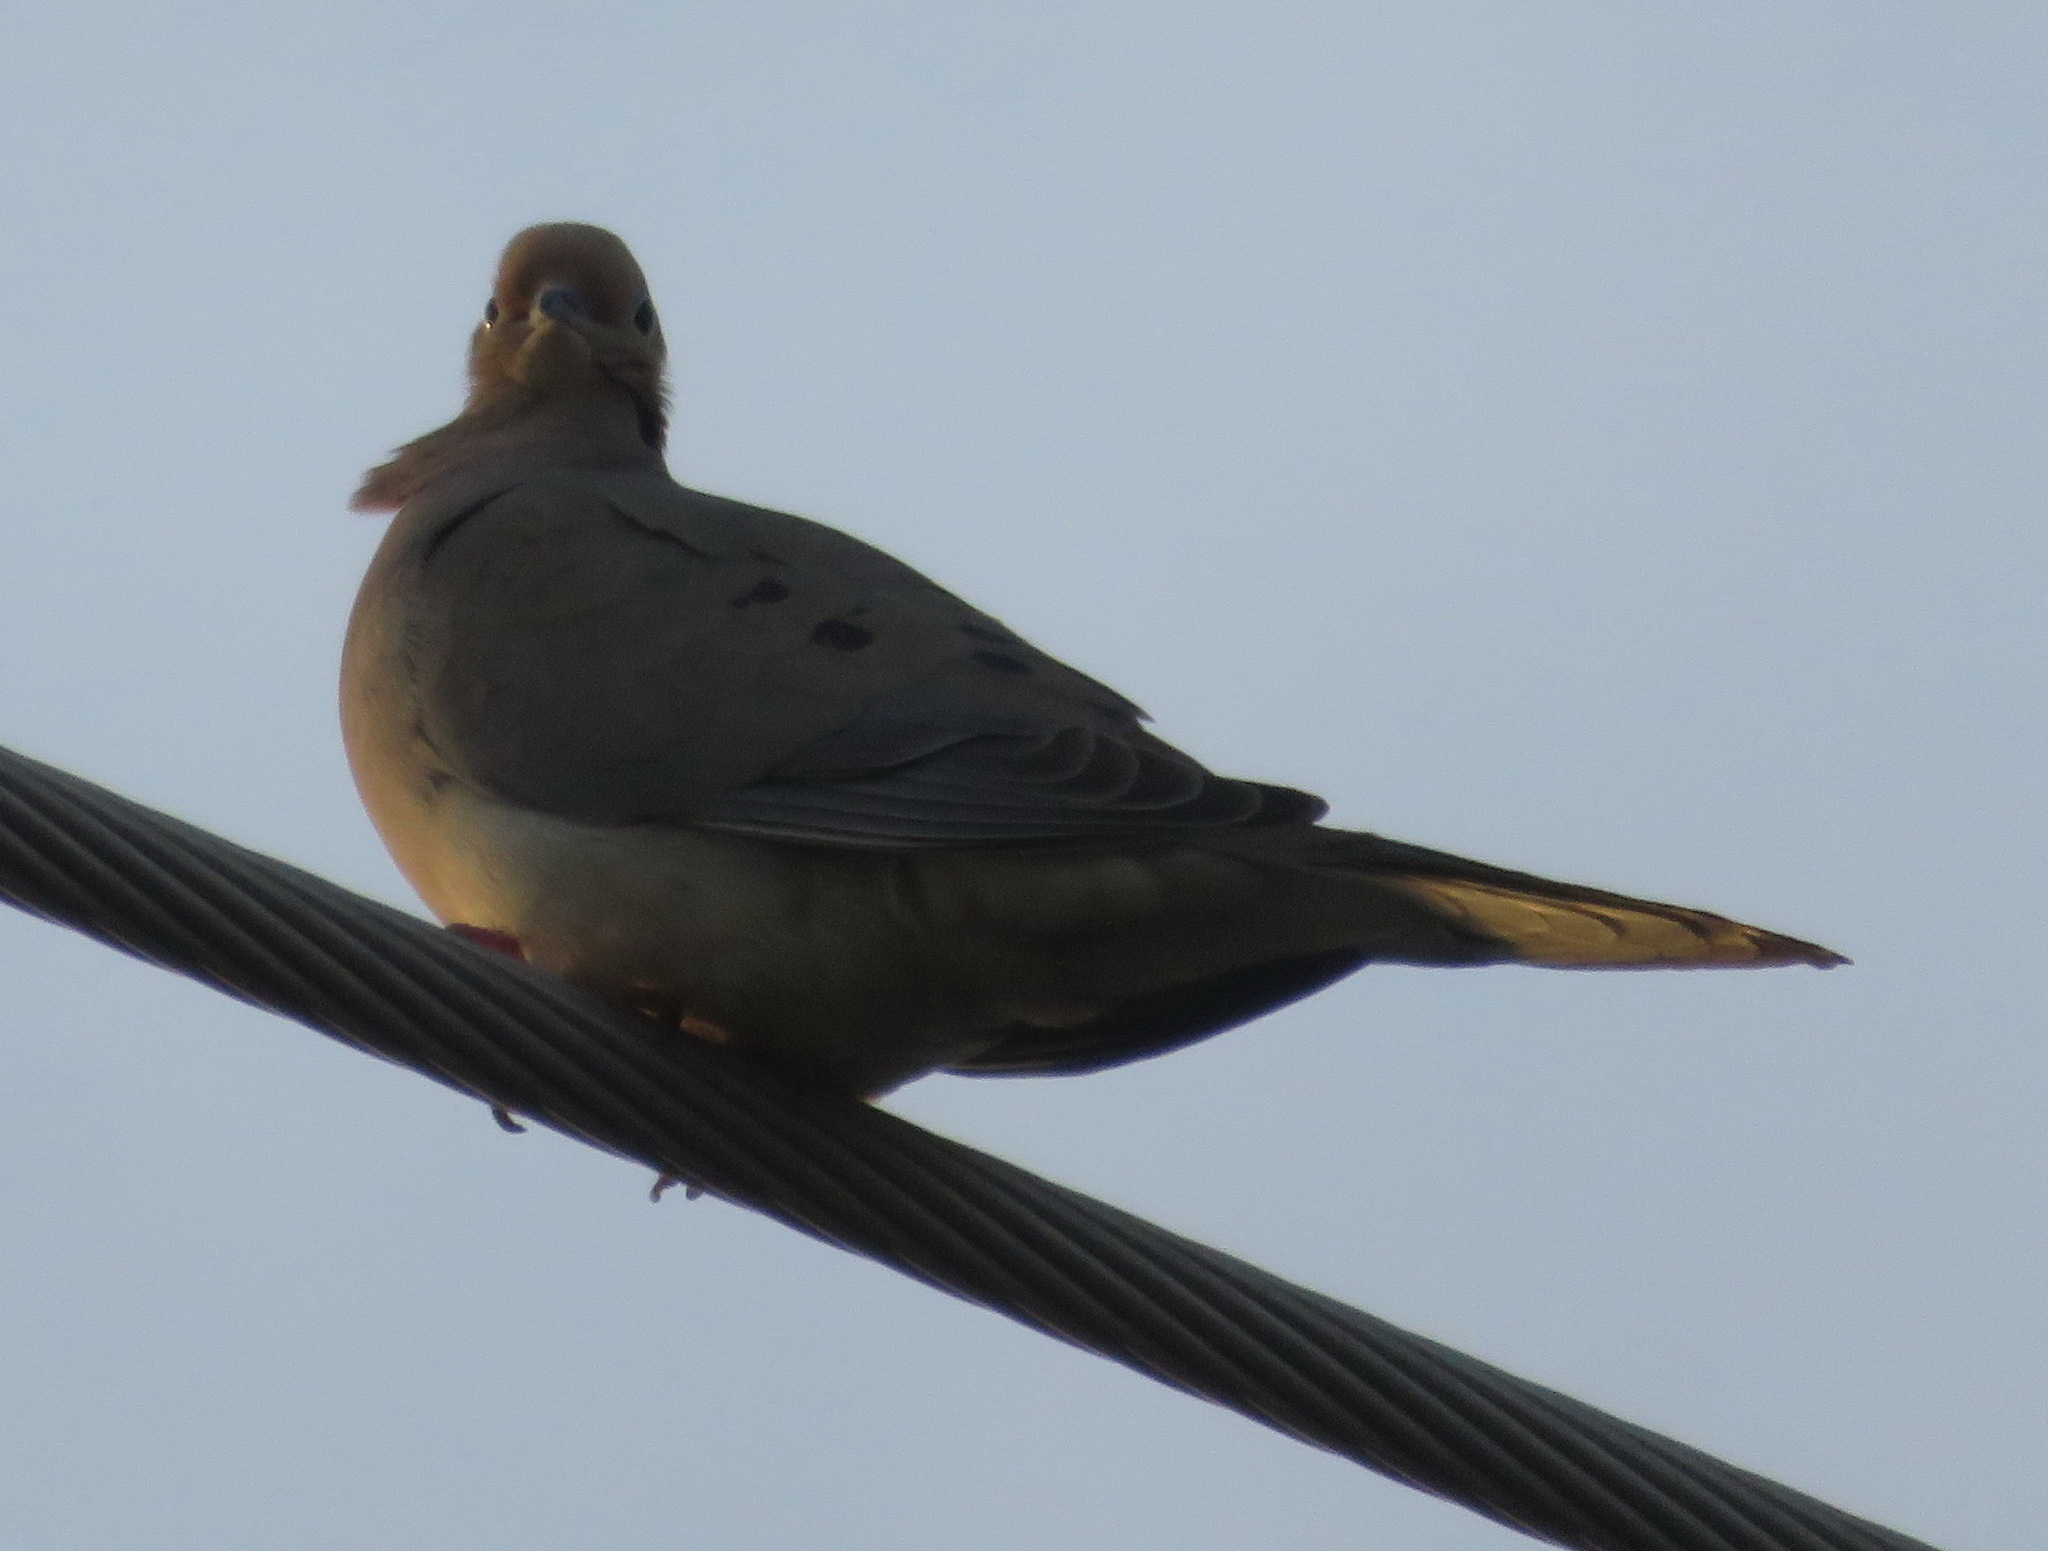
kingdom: Animalia
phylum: Chordata
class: Aves
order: Columbiformes
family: Columbidae
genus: Zenaida
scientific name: Zenaida macroura
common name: Mourning dove
